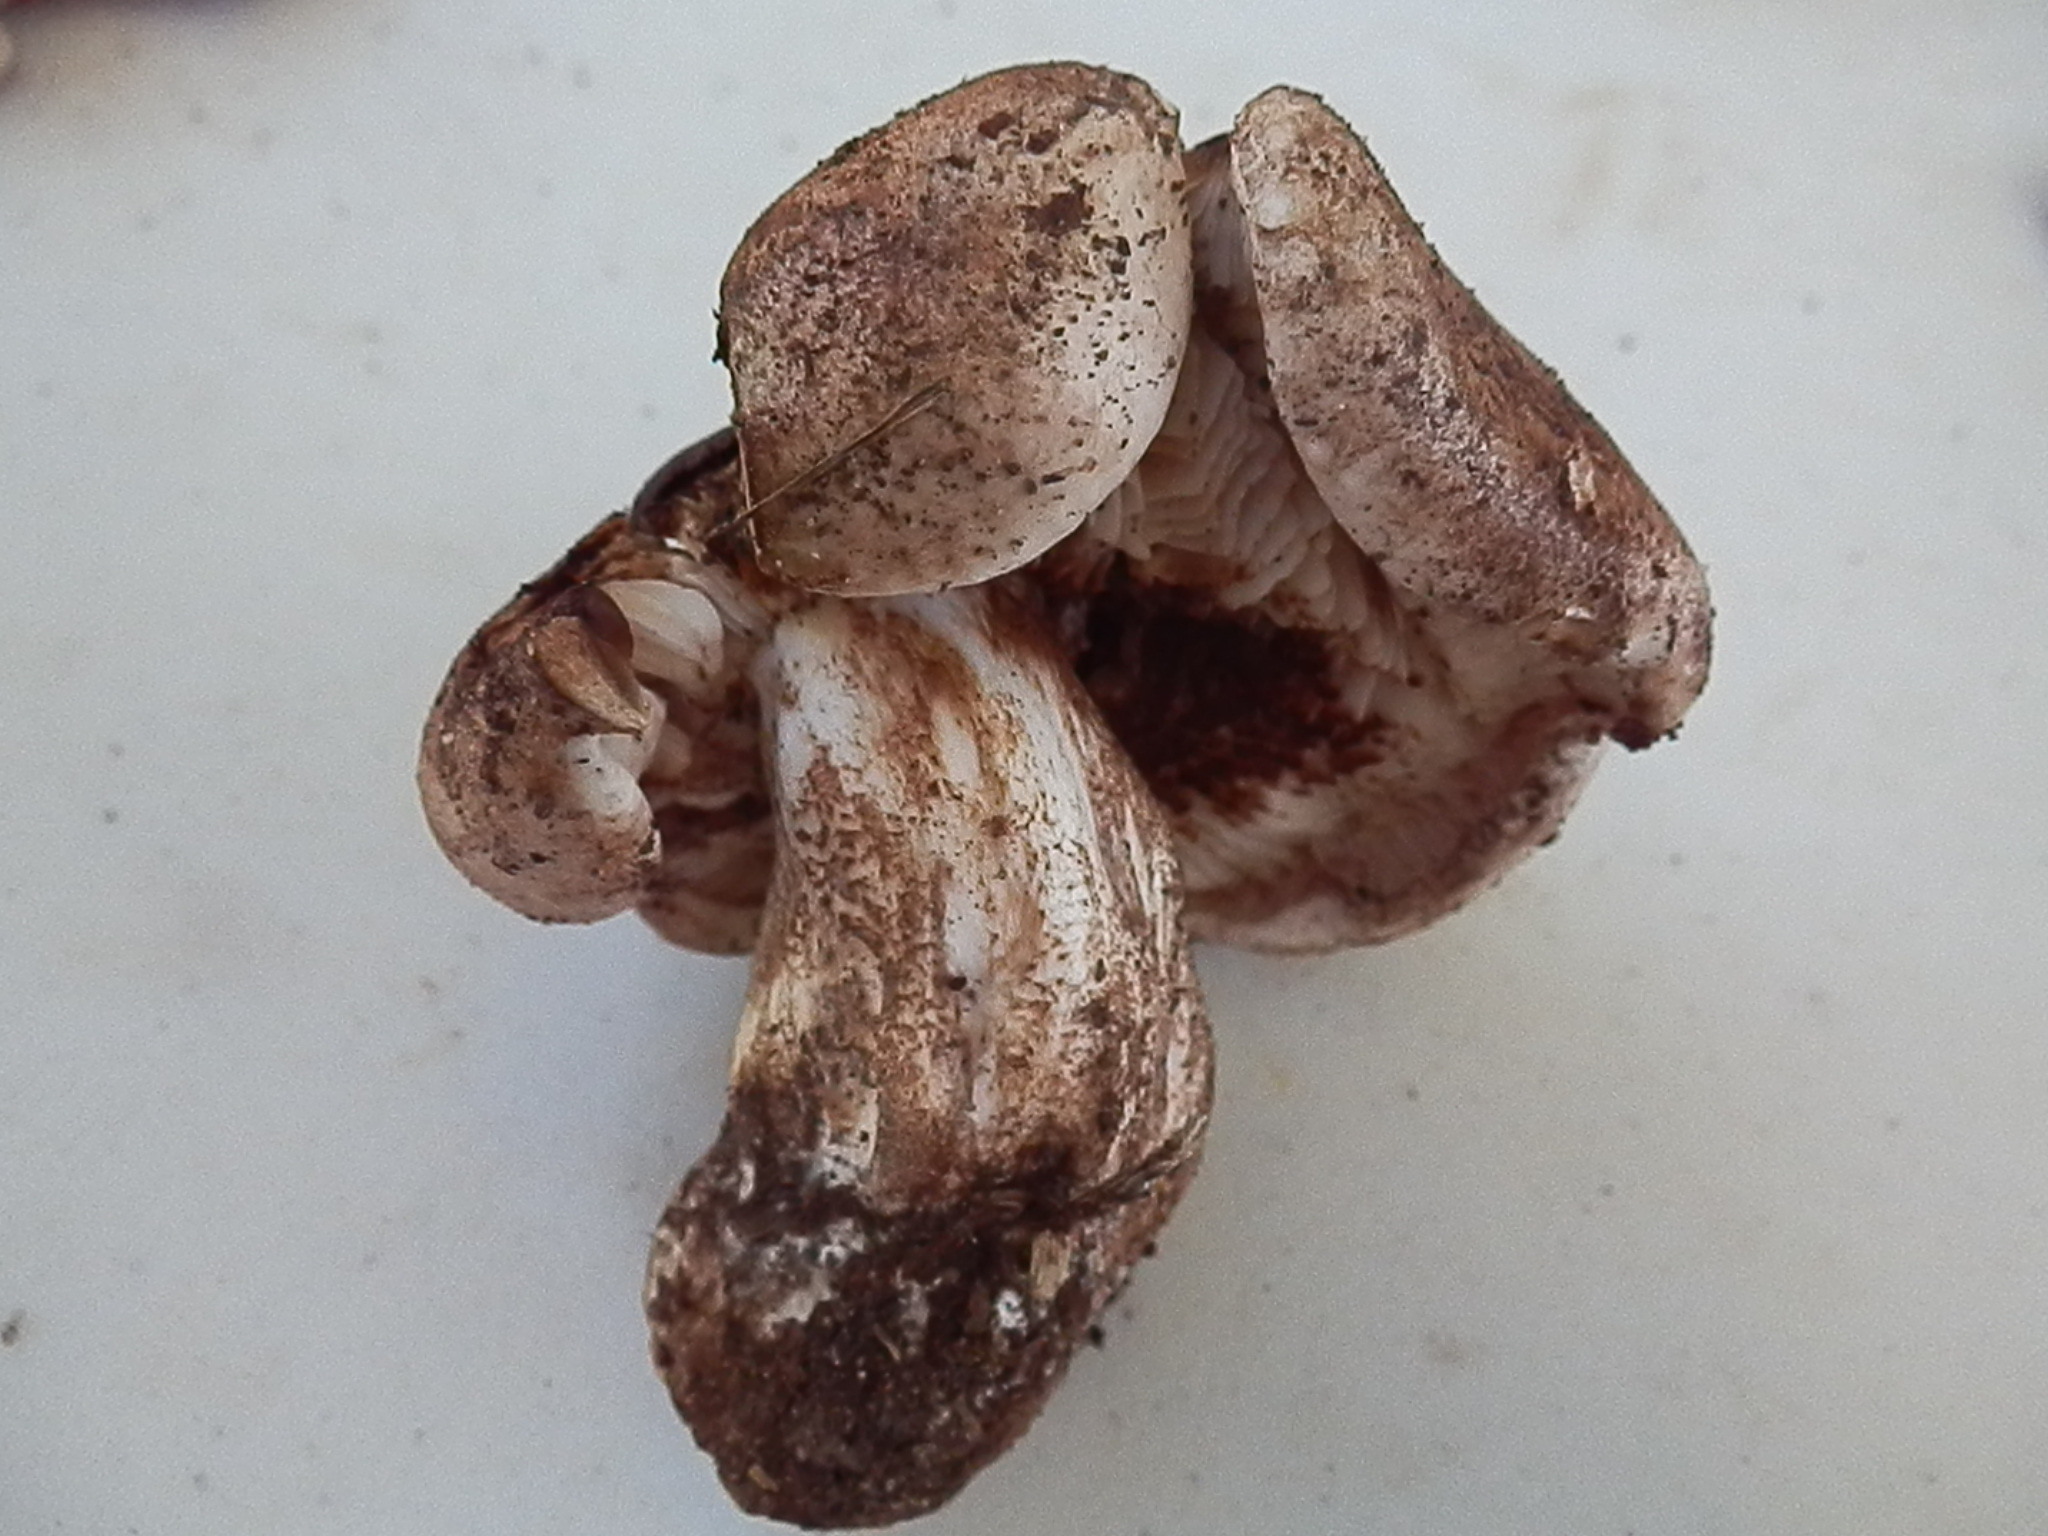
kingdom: Fungi
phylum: Basidiomycota
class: Agaricomycetes
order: Agaricales
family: Tricholomataceae
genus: Tricholoma
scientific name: Tricholoma populinum
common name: Poplar knight
